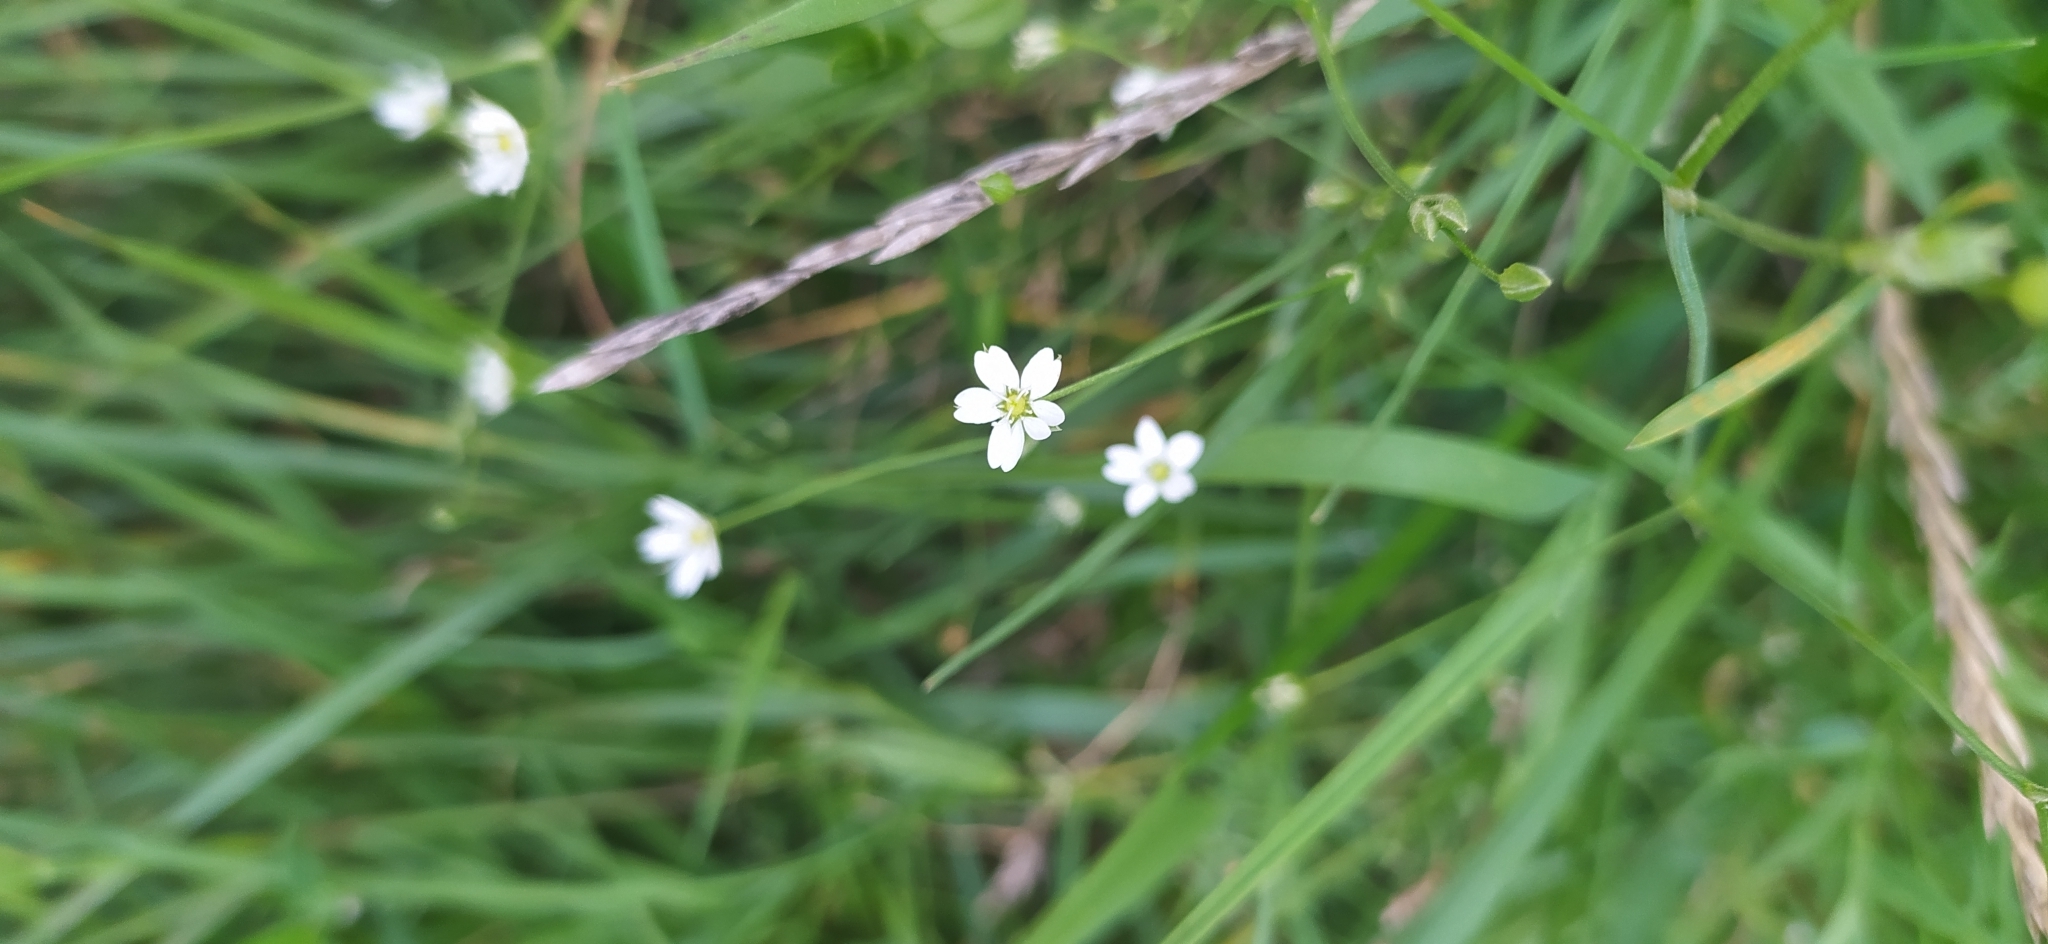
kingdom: Plantae
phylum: Tracheophyta
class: Magnoliopsida
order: Caryophyllales
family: Caryophyllaceae
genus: Stellaria
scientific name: Stellaria graminea
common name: Grass-like starwort
